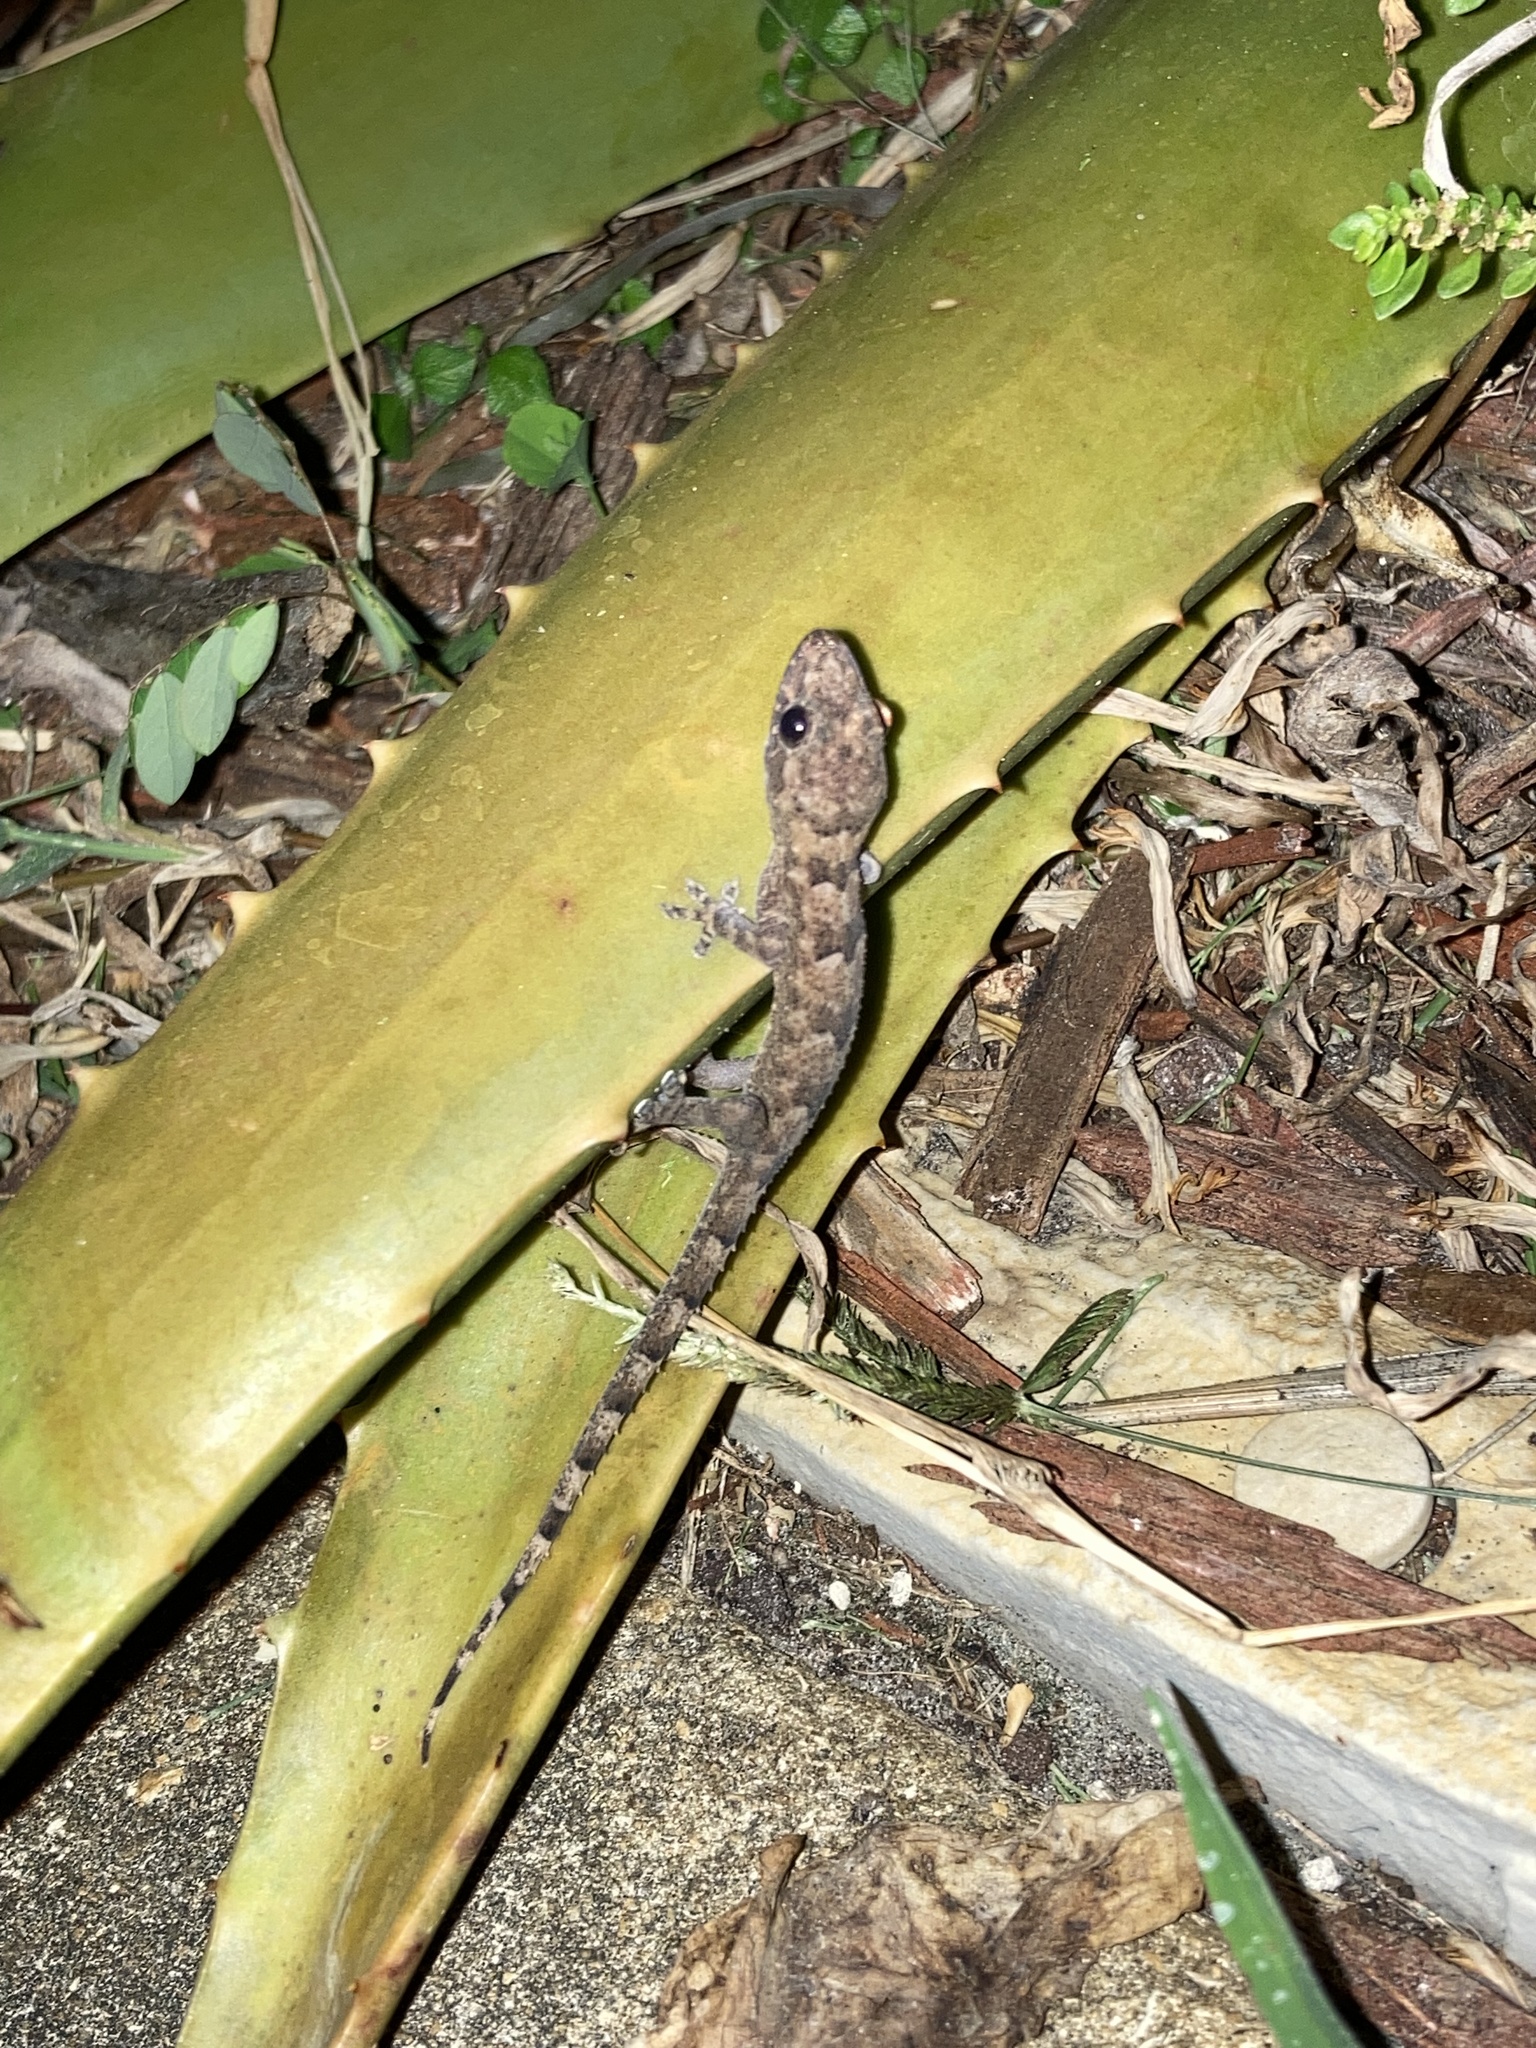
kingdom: Animalia
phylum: Chordata
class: Squamata
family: Gekkonidae
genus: Hemidactylus
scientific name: Hemidactylus mabouia
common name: House gecko
